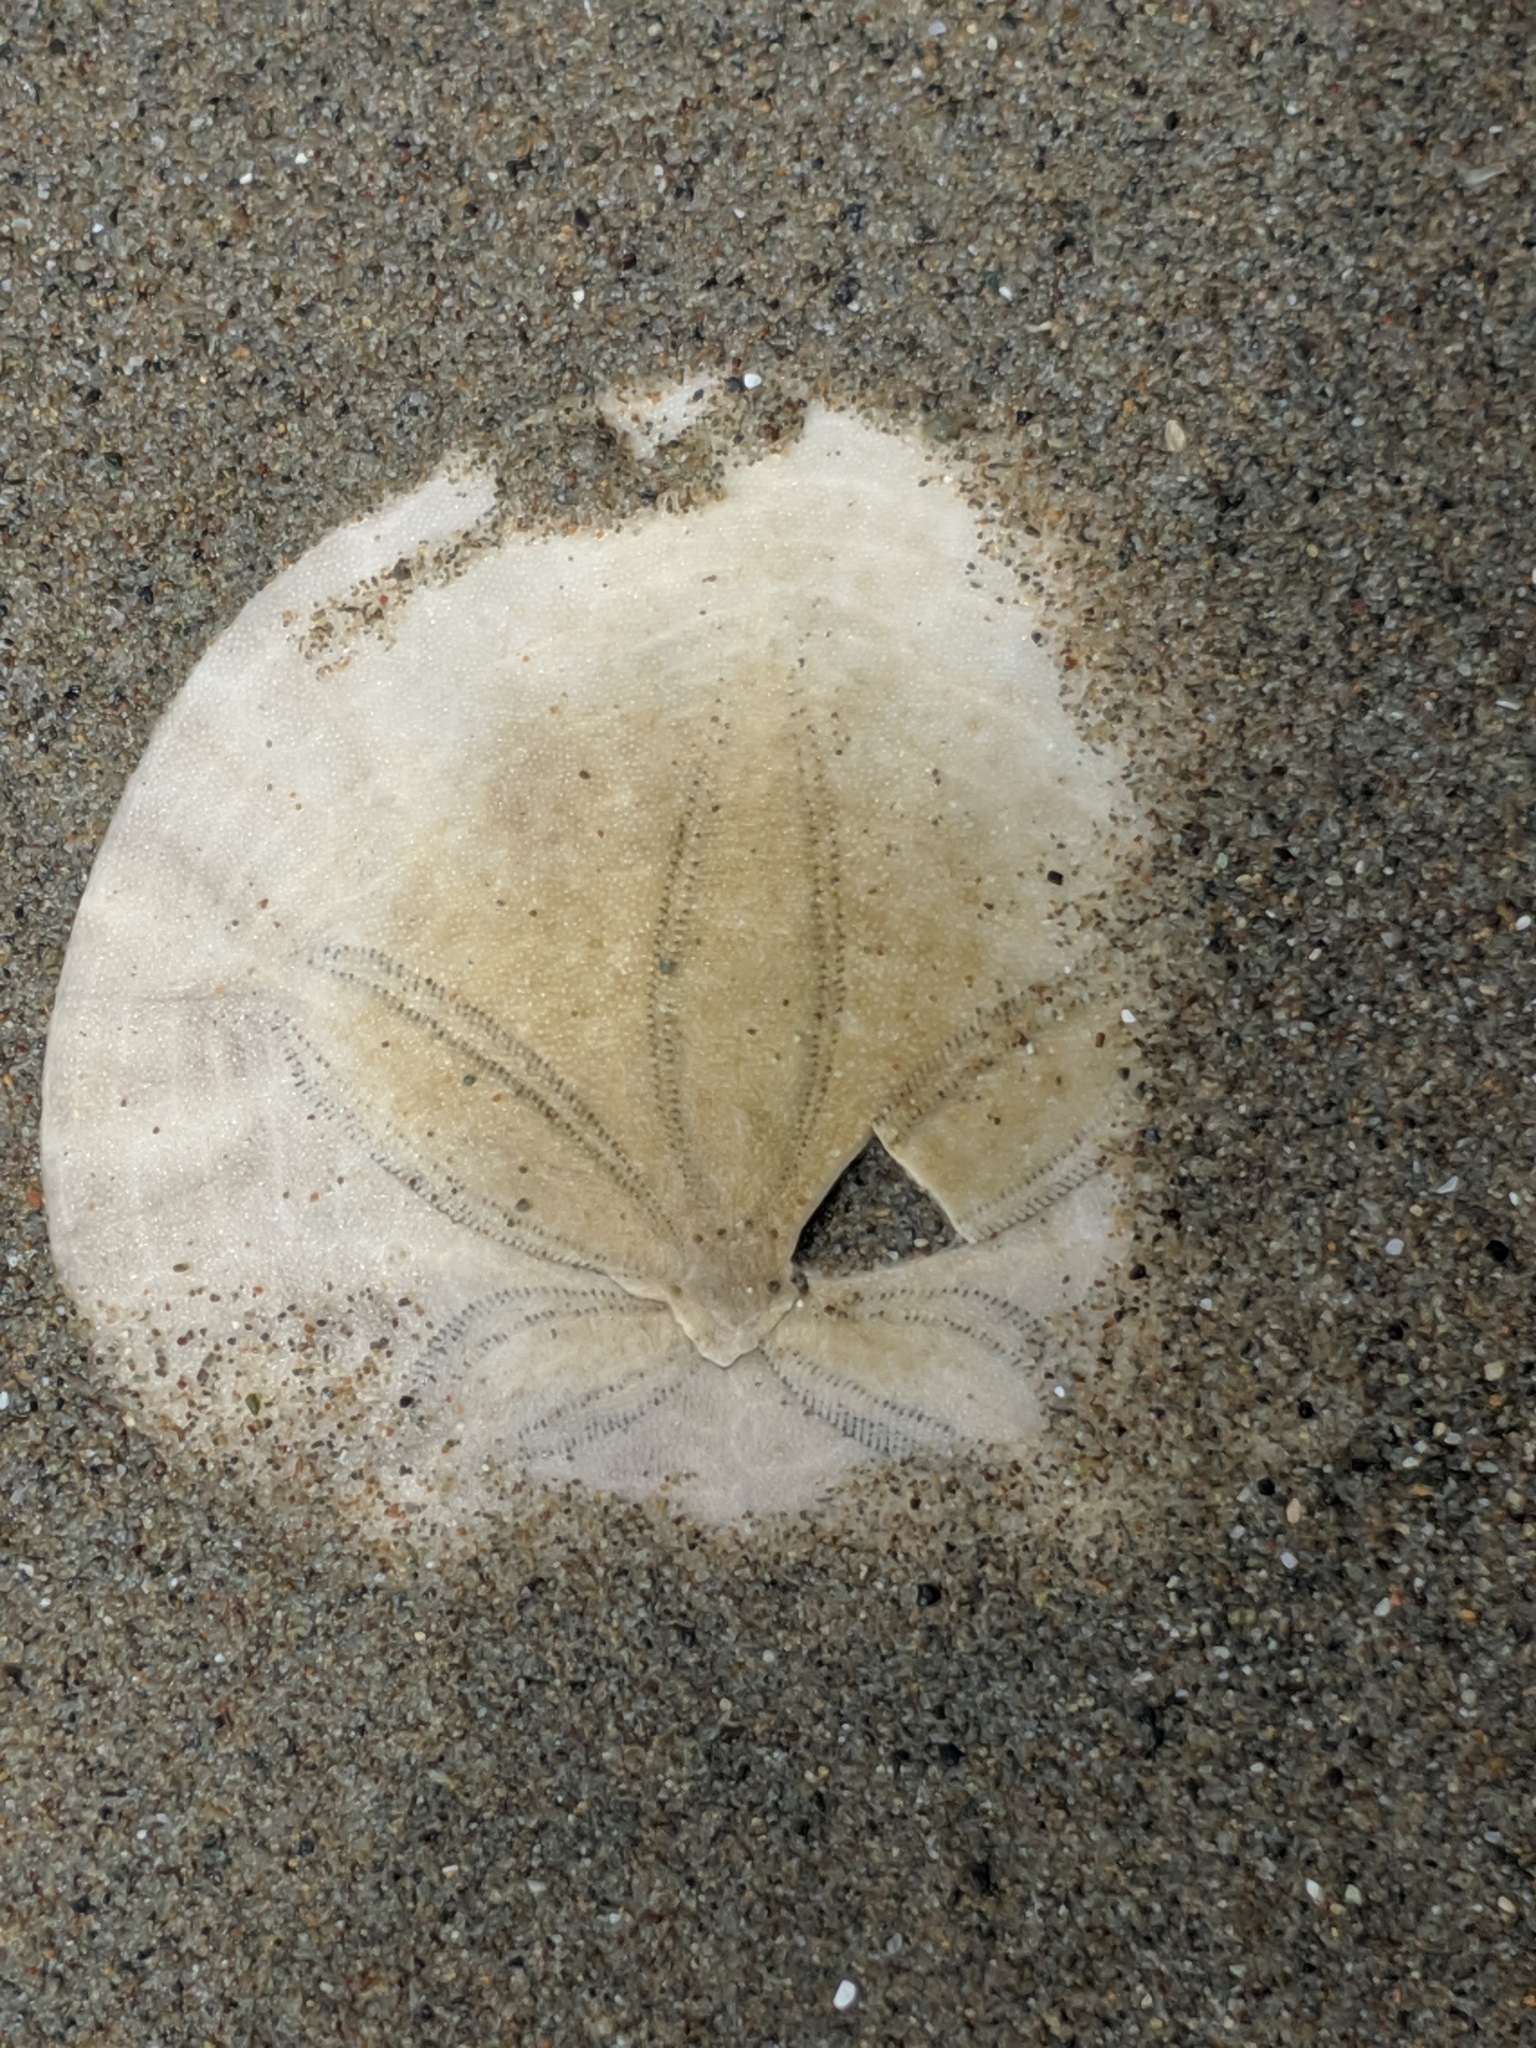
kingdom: Animalia
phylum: Echinodermata
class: Echinoidea
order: Echinolampadacea
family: Dendrasteridae
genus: Dendraster
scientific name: Dendraster excentricus
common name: Eccentric sand dollar sea urchin
